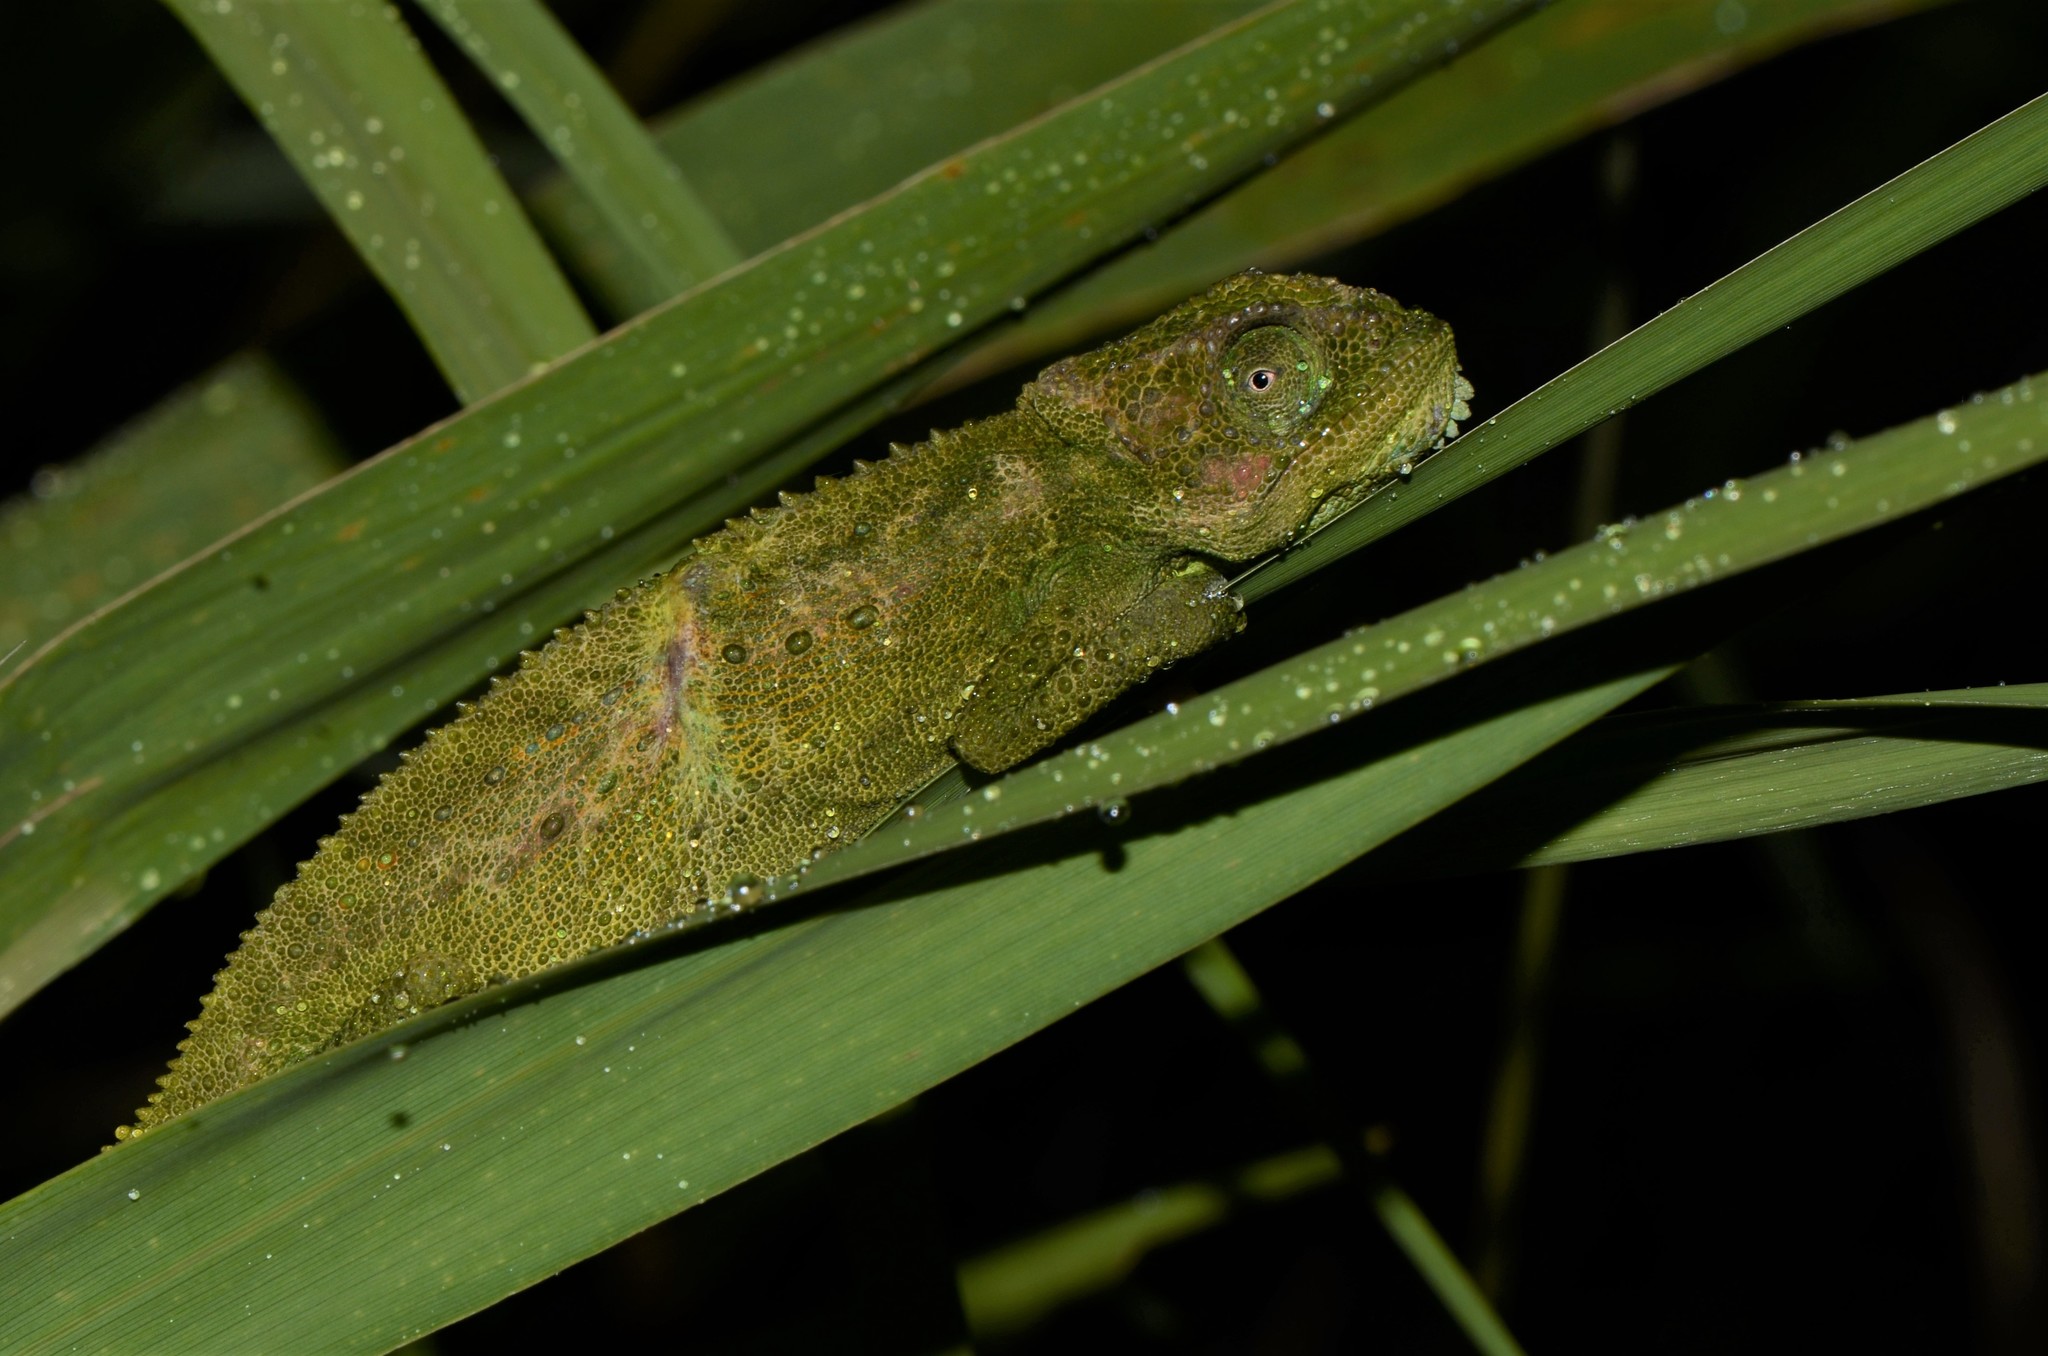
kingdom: Animalia
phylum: Chordata
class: Squamata
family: Chamaeleonidae
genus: Bradypodion
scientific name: Bradypodion pumilum
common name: Cape dwarf chameleon
